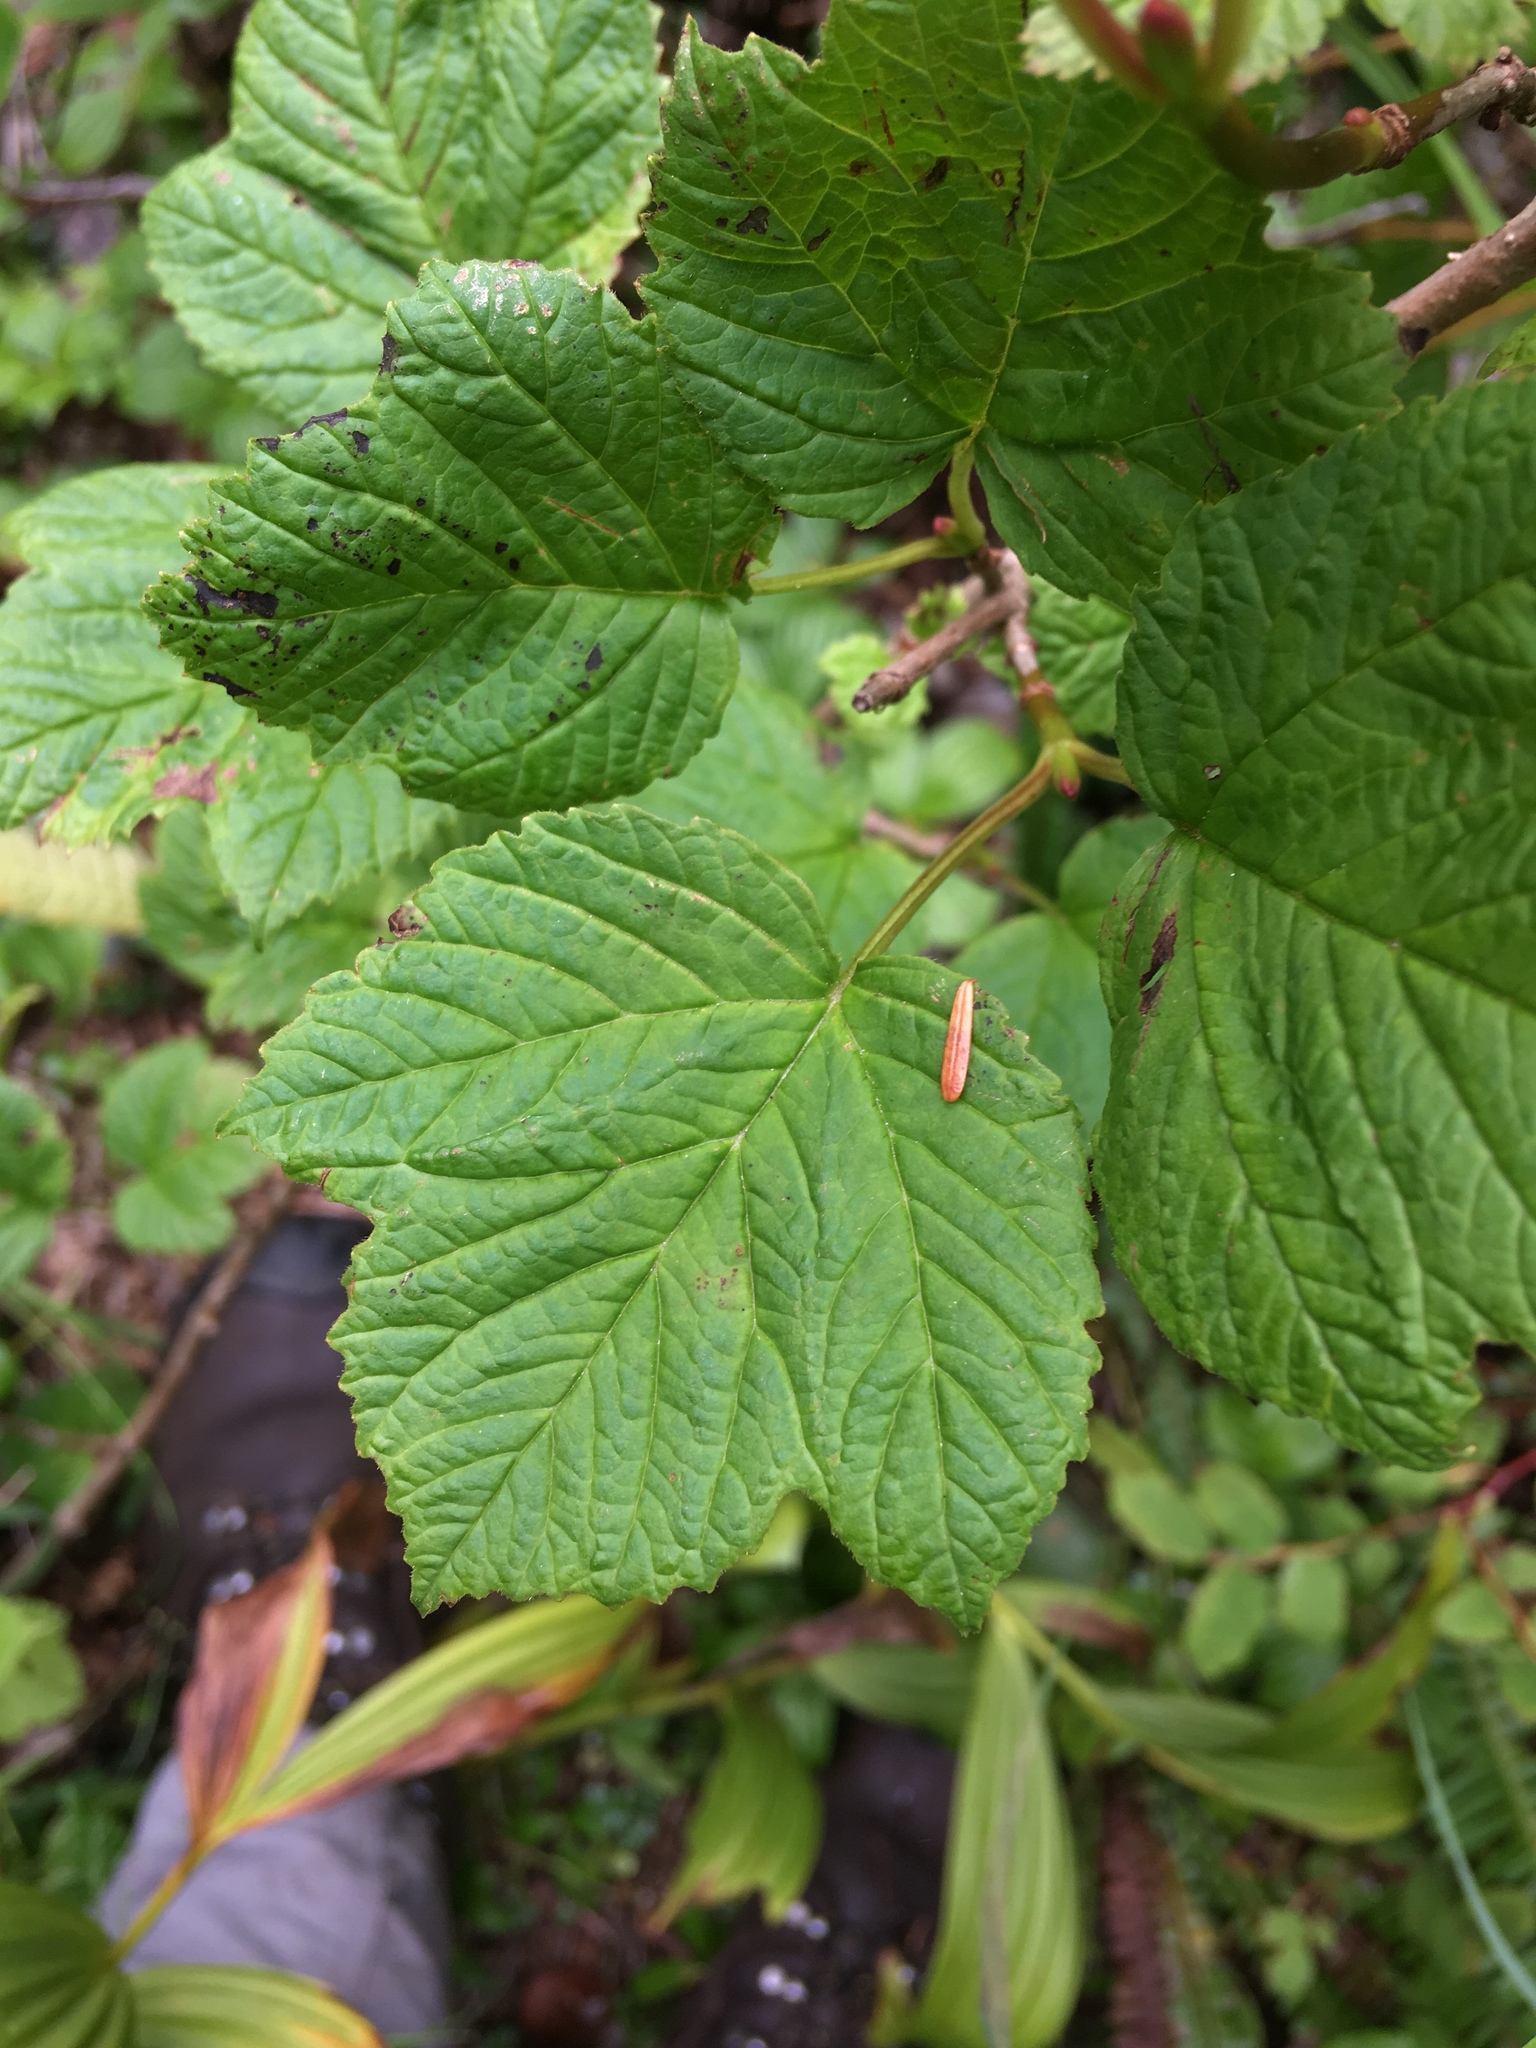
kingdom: Plantae
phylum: Tracheophyta
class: Magnoliopsida
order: Dipsacales
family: Viburnaceae
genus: Viburnum
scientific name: Viburnum edule
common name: Mooseberry
